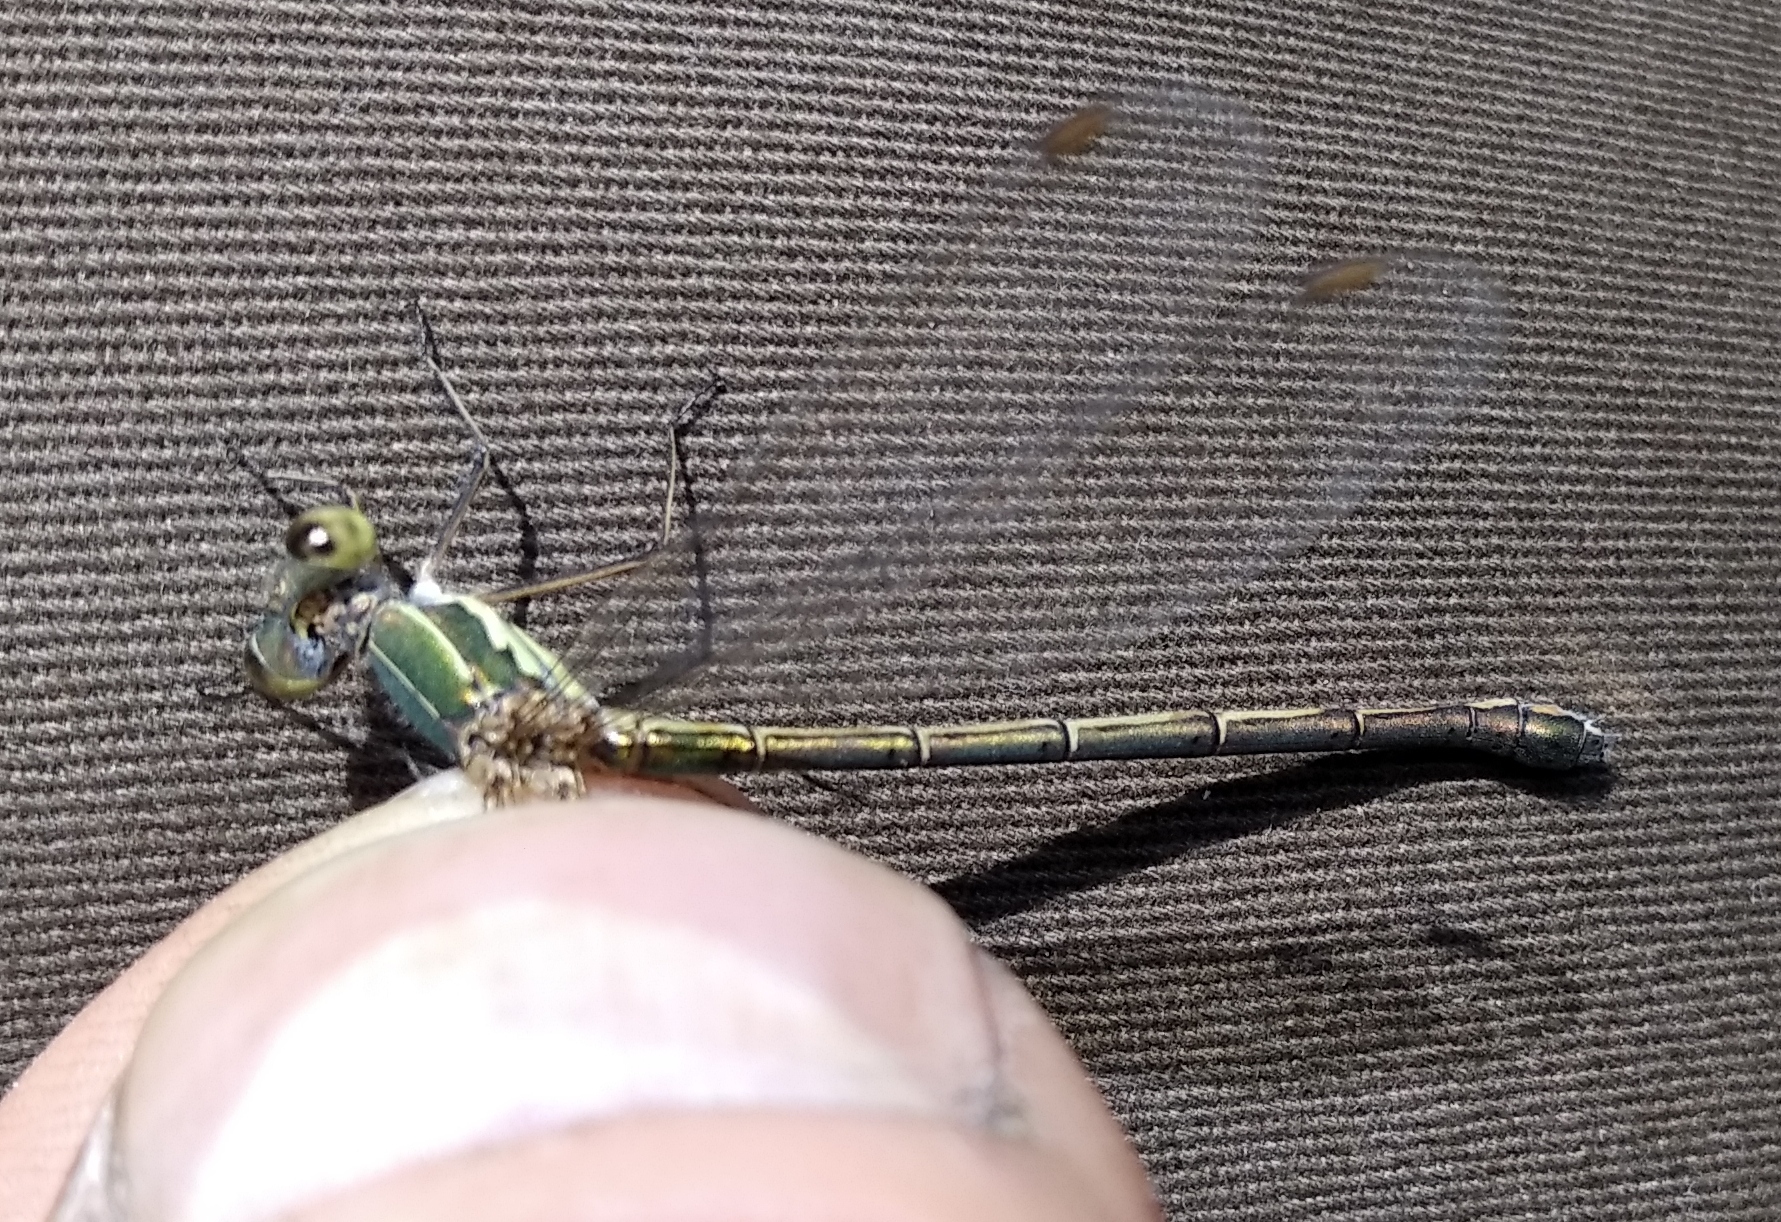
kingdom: Animalia
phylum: Arthropoda
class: Insecta
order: Odonata
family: Lestidae
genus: Chalcolestes
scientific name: Chalcolestes parvidens
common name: Eastern willow spreadwing
